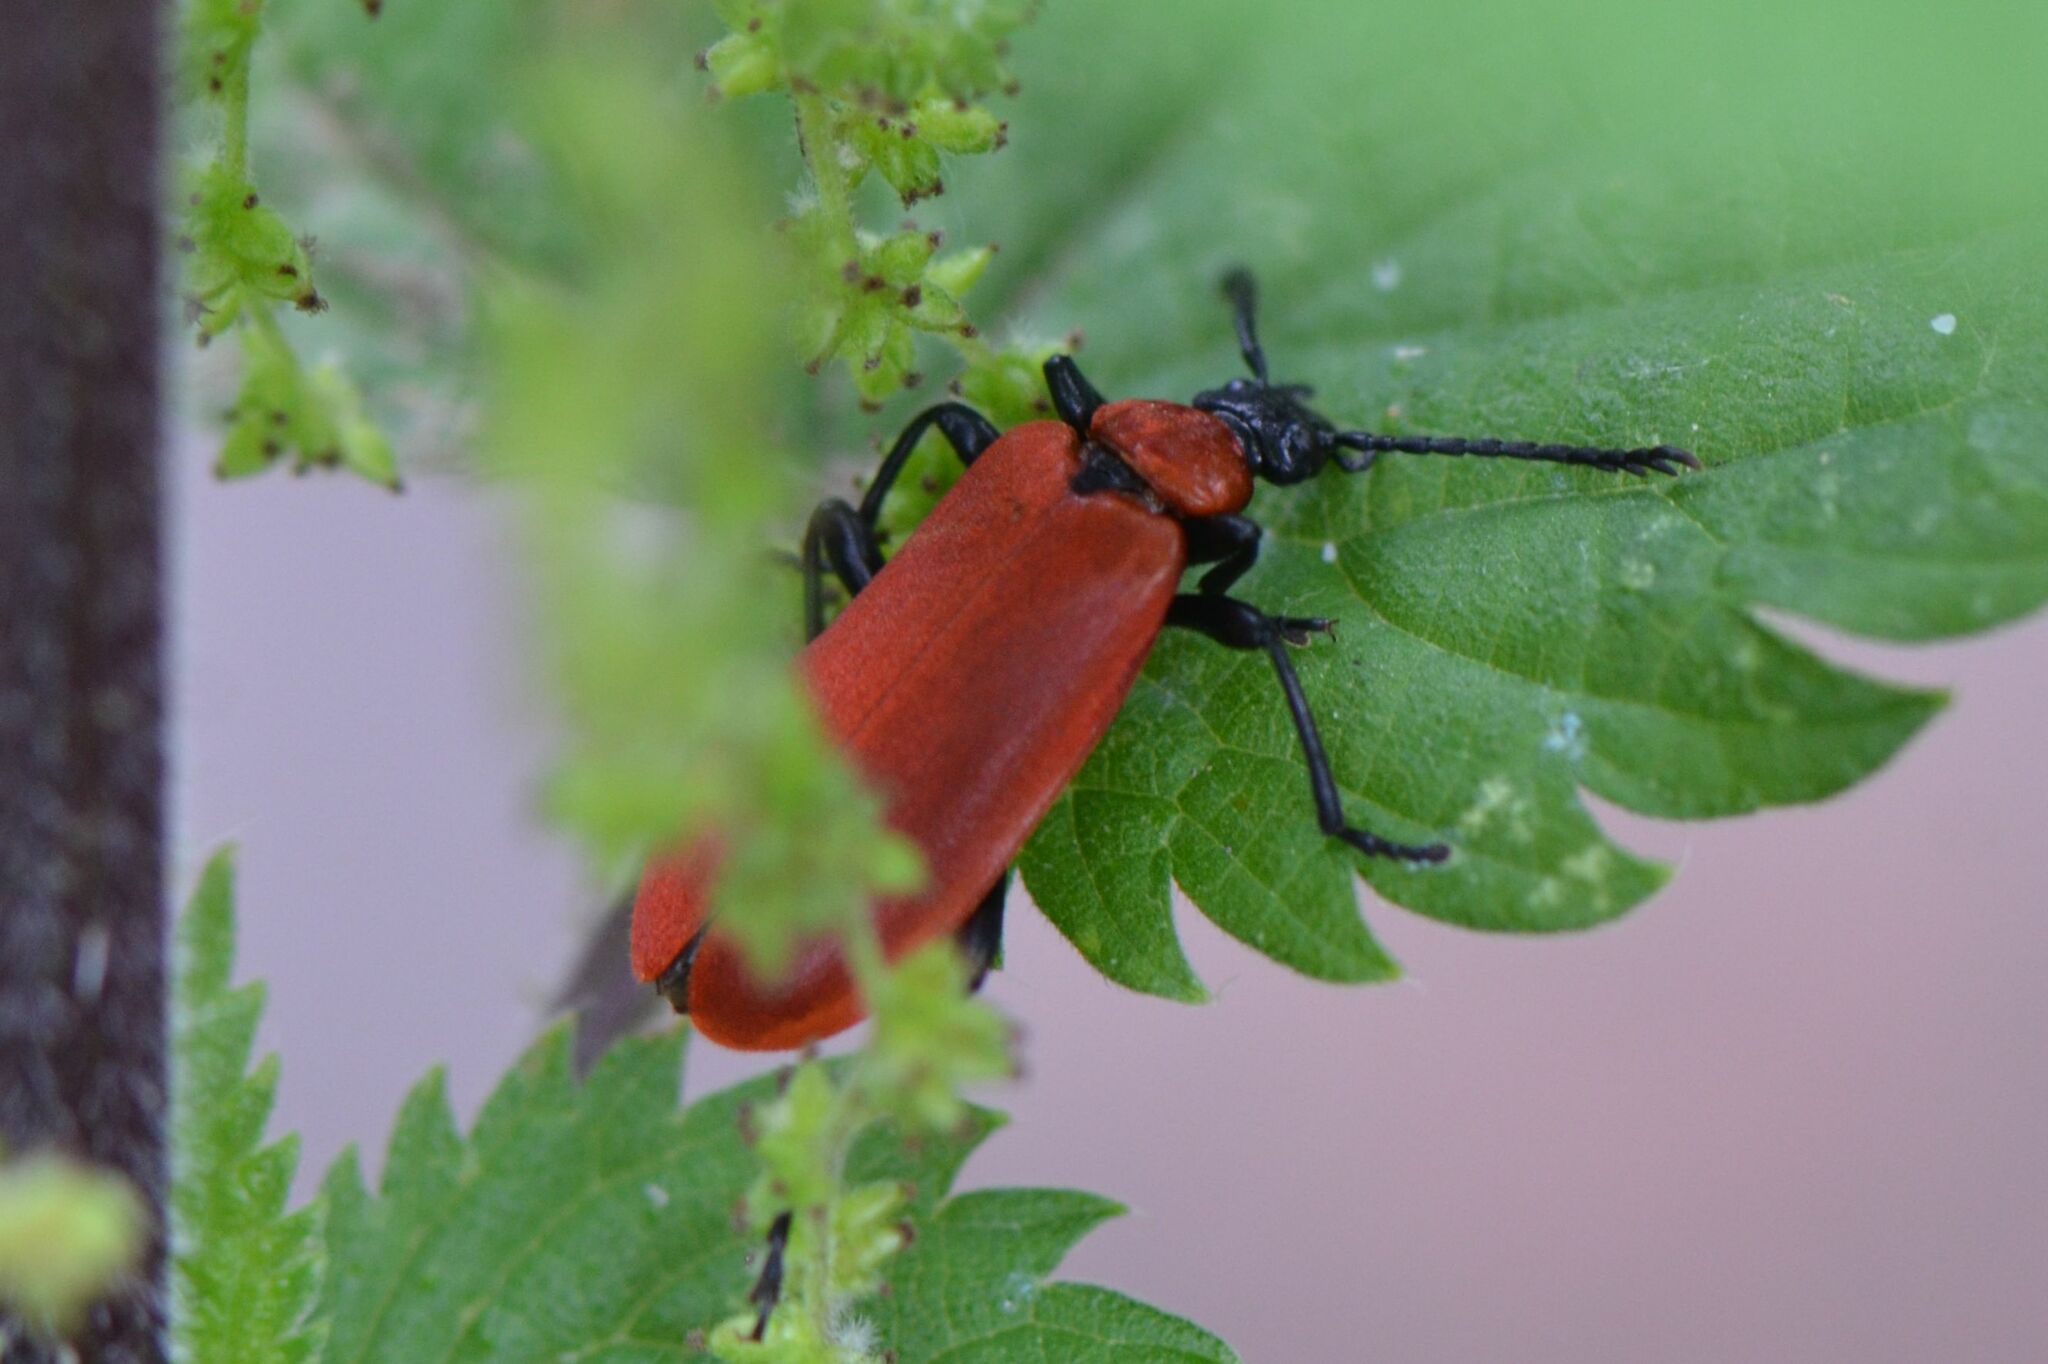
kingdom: Animalia
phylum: Arthropoda
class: Insecta
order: Coleoptera
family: Pyrochroidae
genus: Pyrochroa
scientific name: Pyrochroa coccinea
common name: Black-headed cardinal beetle
